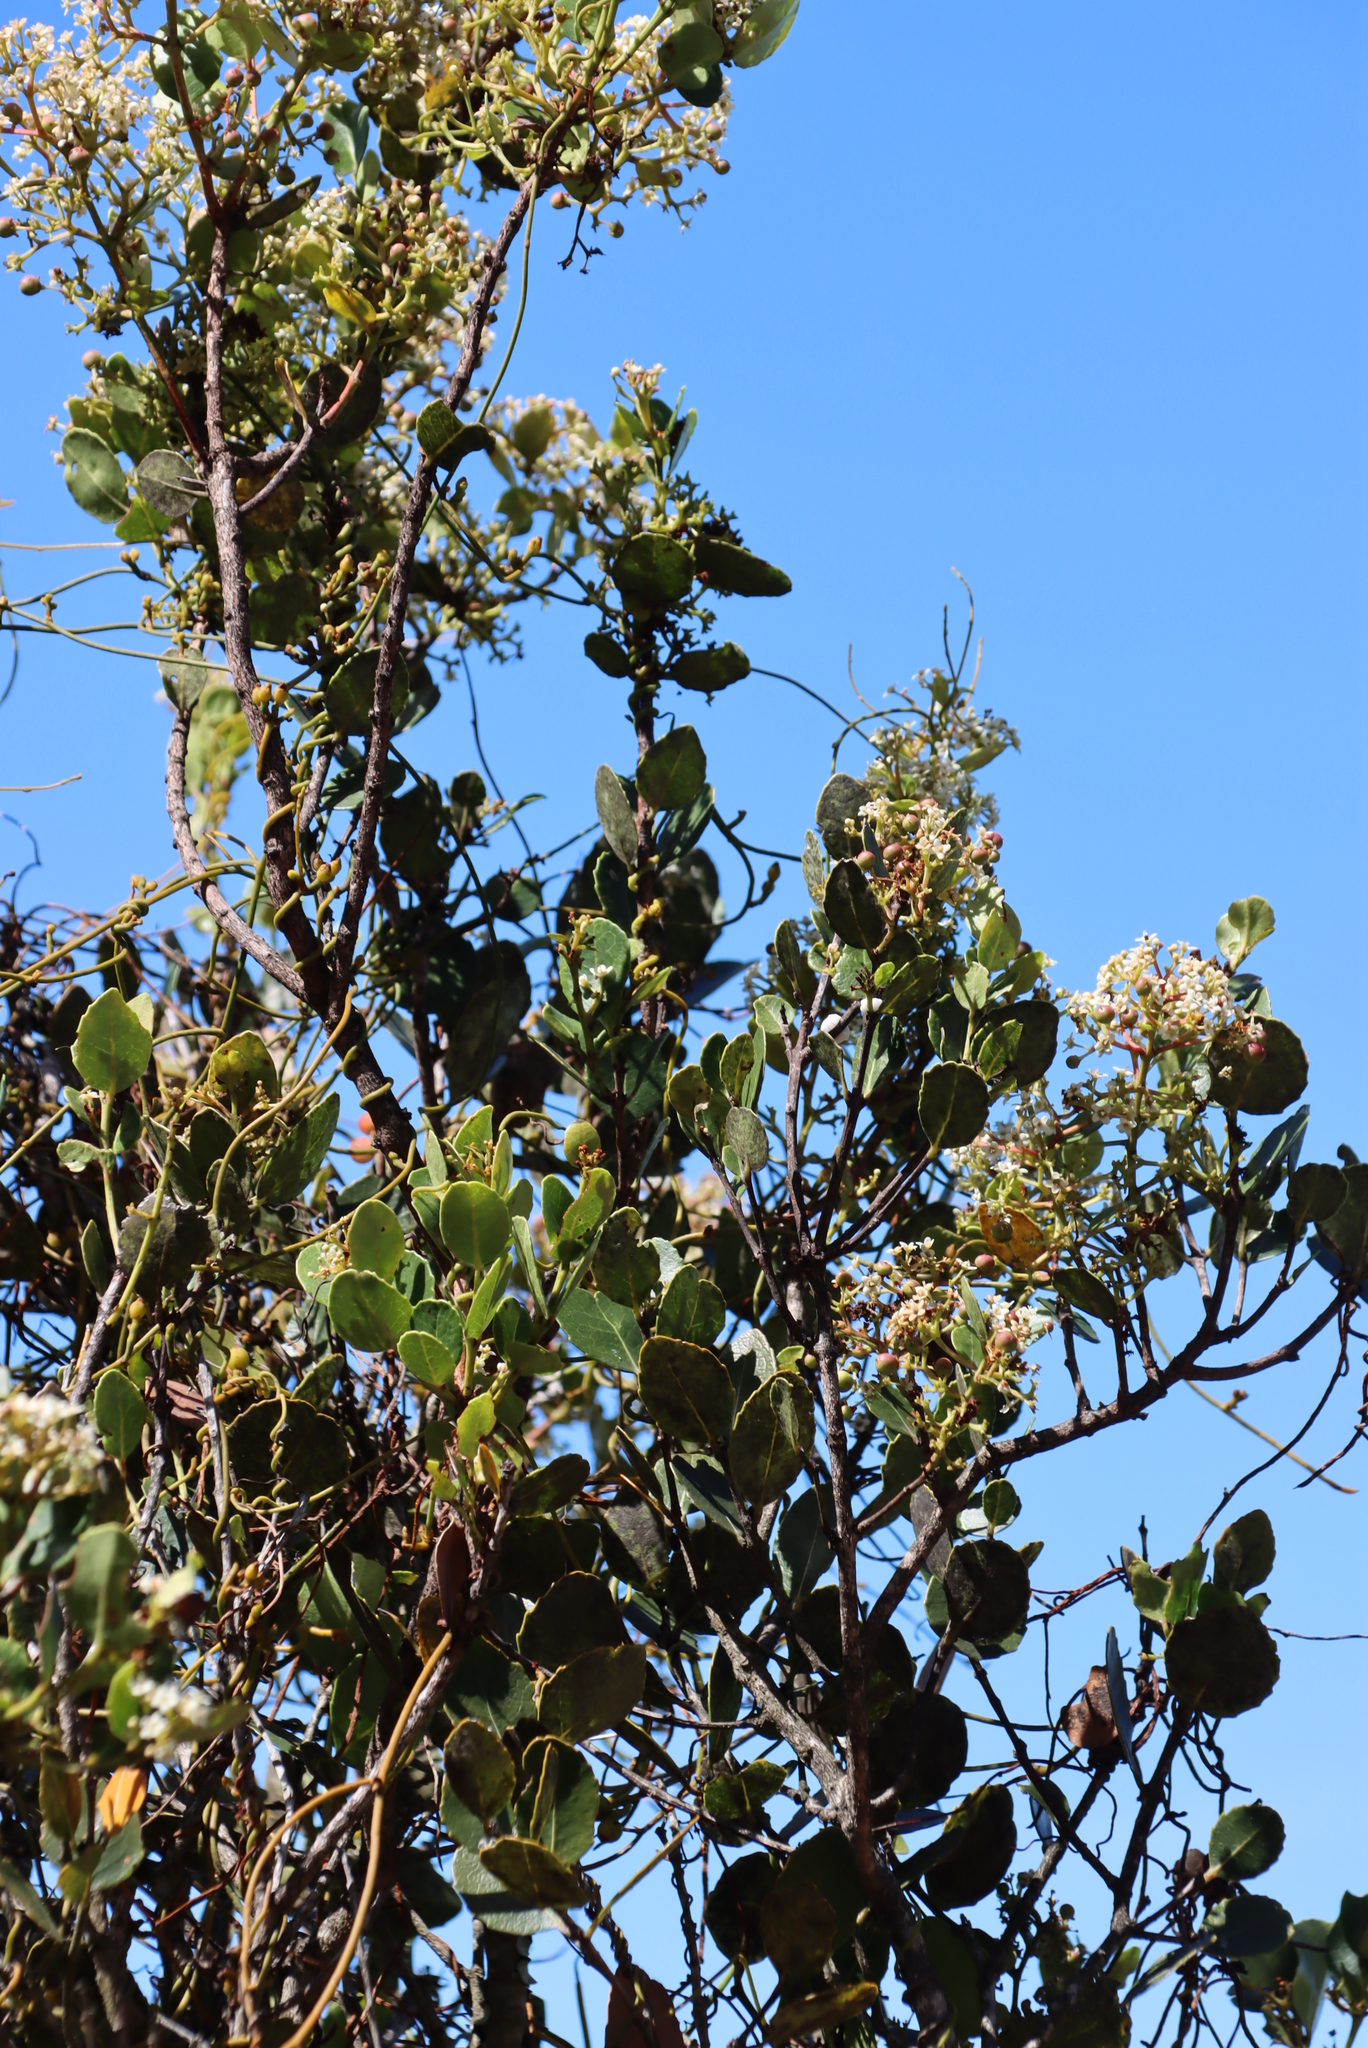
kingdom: Plantae
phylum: Tracheophyta
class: Magnoliopsida
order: Celastrales
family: Celastraceae
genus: Cassine
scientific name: Cassine peragua
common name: Cape saffron
